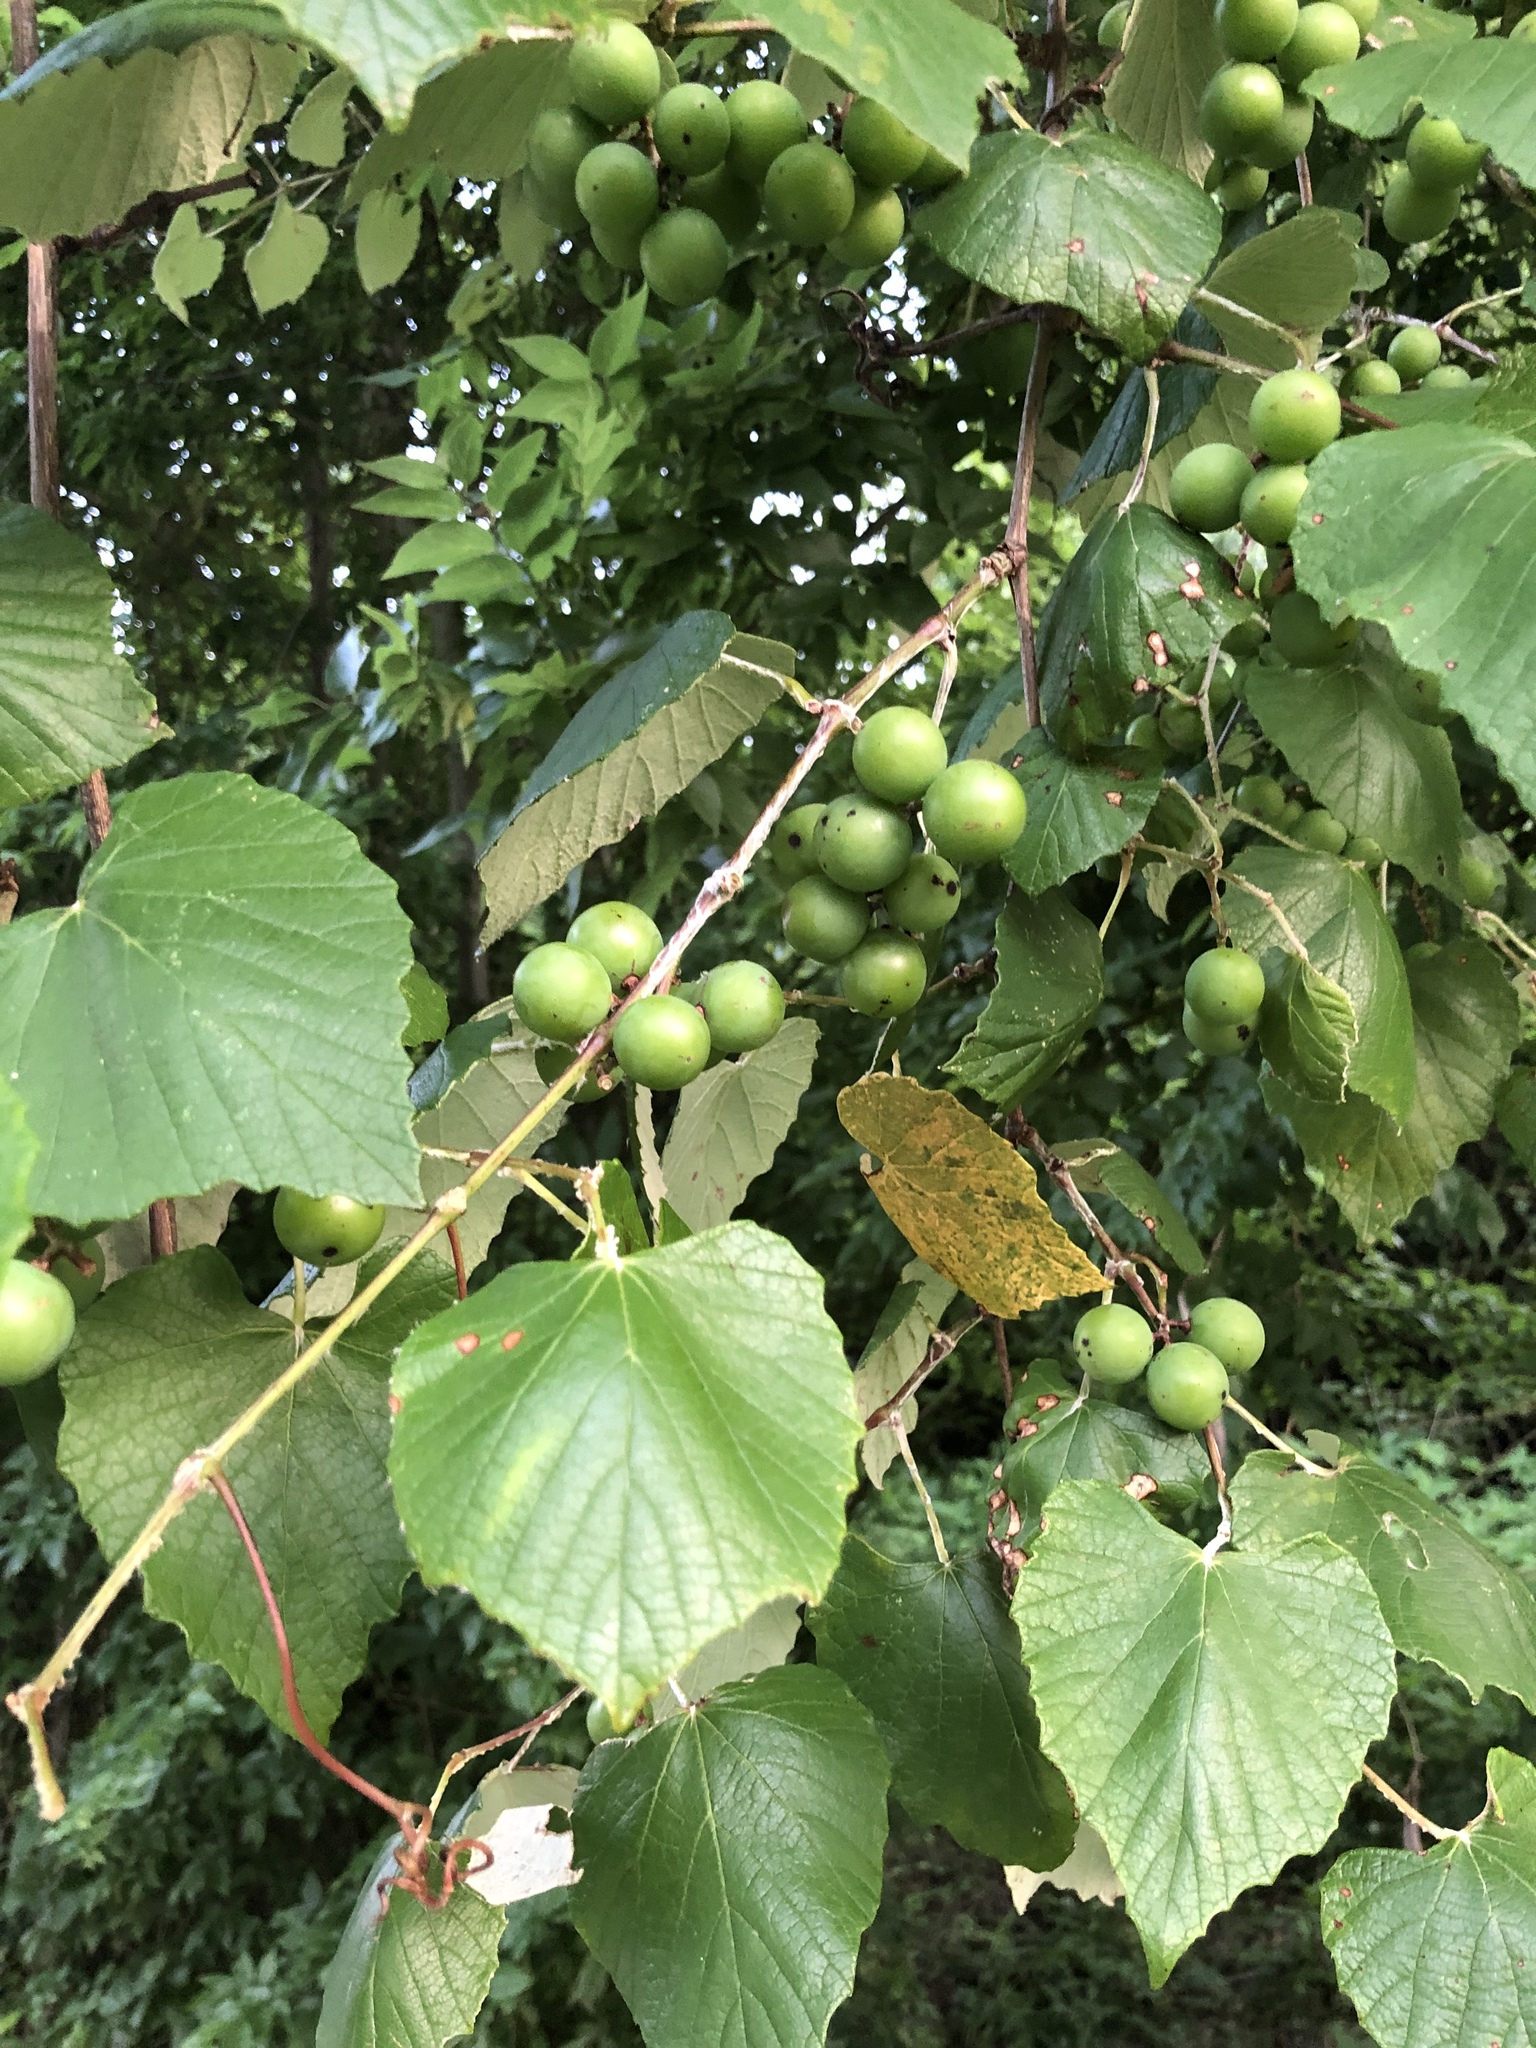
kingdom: Plantae
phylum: Tracheophyta
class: Magnoliopsida
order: Vitales
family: Vitaceae
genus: Vitis
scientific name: Vitis mustangensis
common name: Mustang grape
